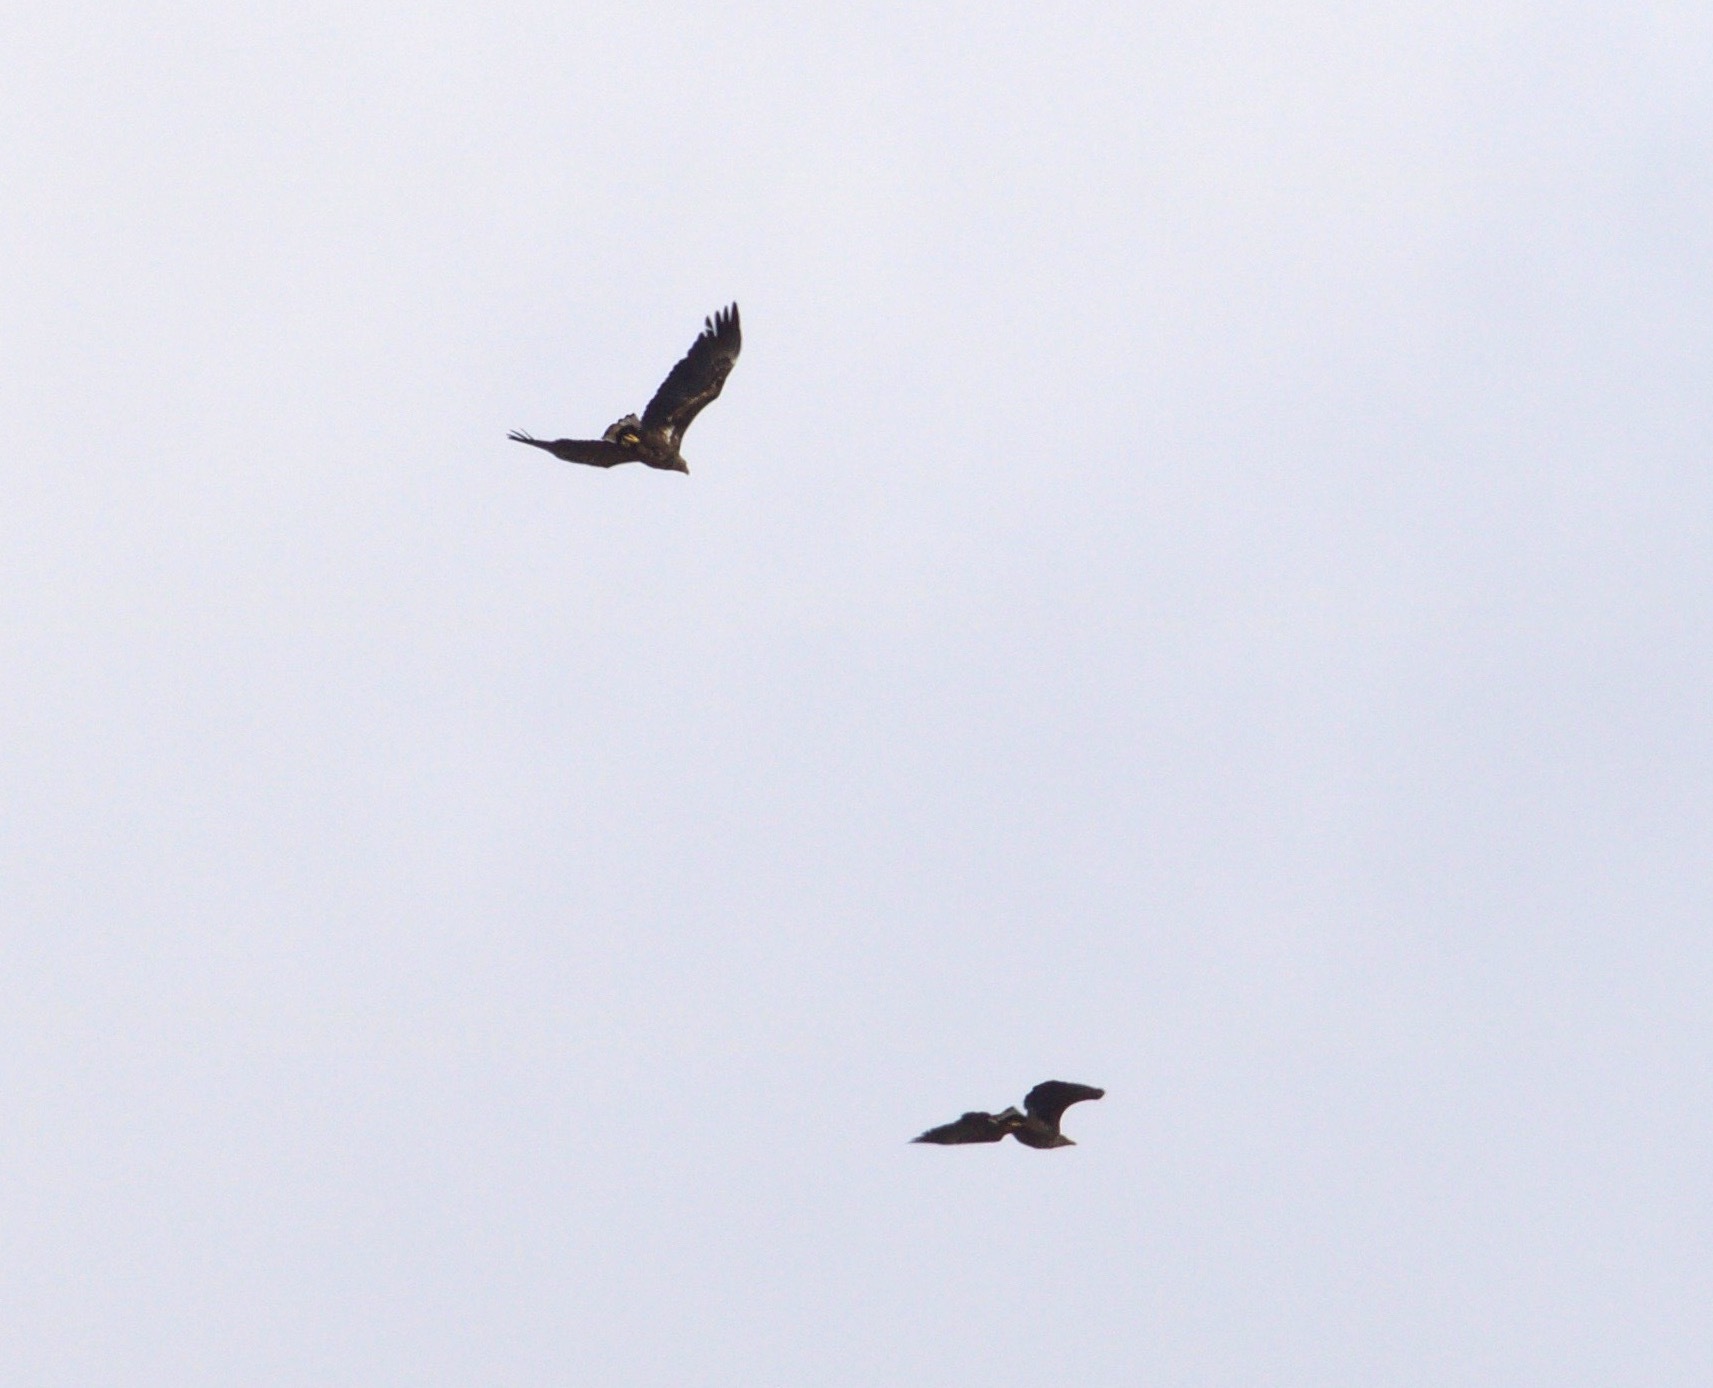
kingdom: Animalia
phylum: Chordata
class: Aves
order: Accipitriformes
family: Accipitridae
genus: Haliaeetus
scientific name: Haliaeetus albicilla
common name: White-tailed eagle
